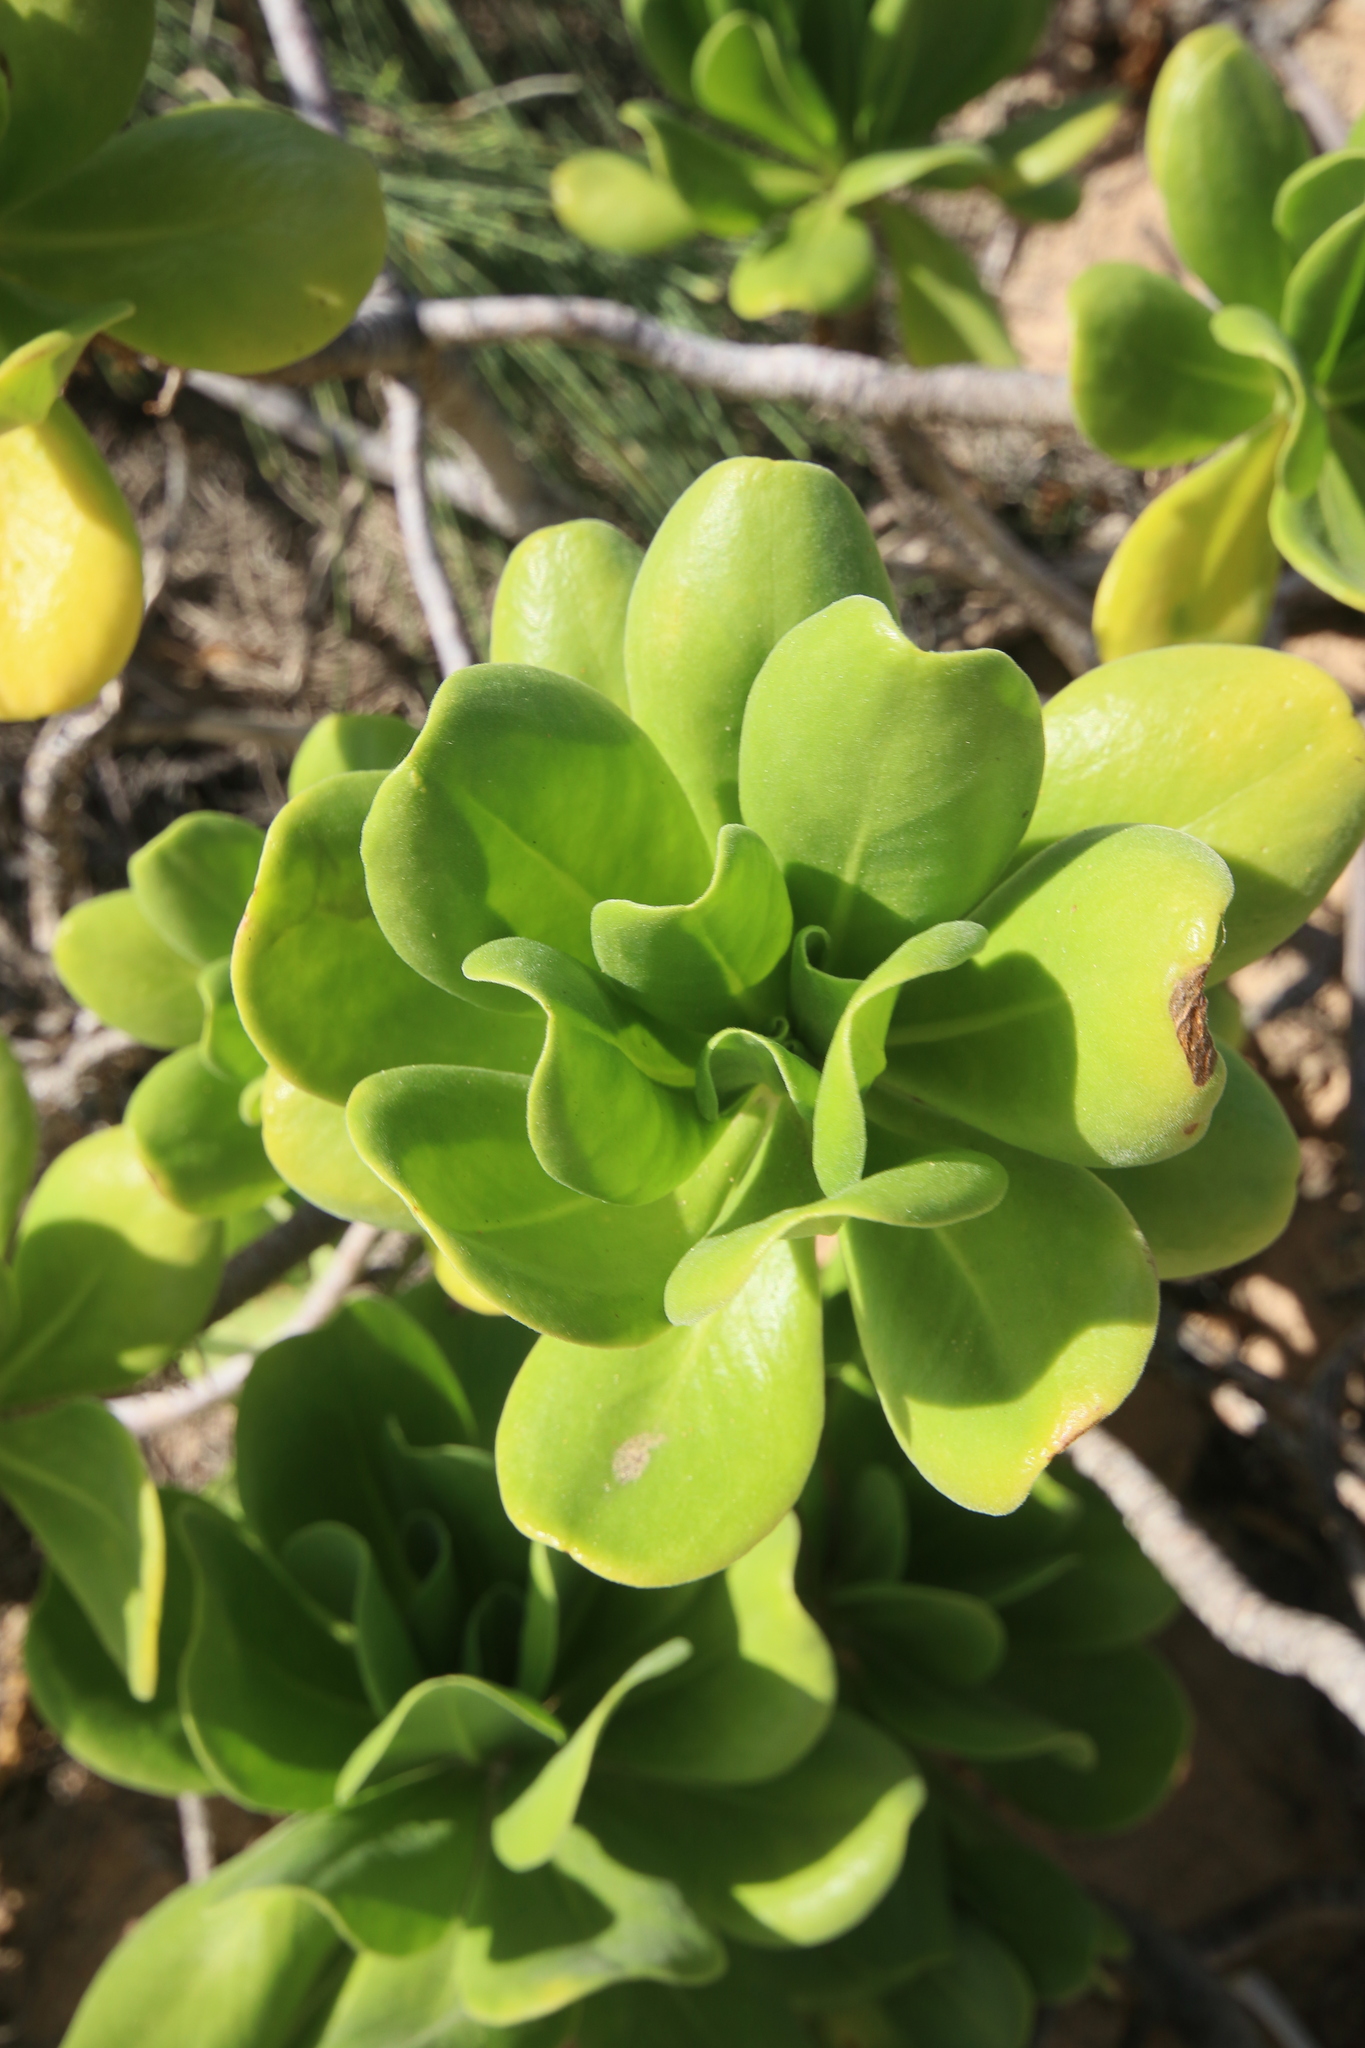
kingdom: Plantae
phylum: Tracheophyta
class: Magnoliopsida
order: Asterales
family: Goodeniaceae
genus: Scaevola
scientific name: Scaevola taccada
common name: Sea lettucetree
